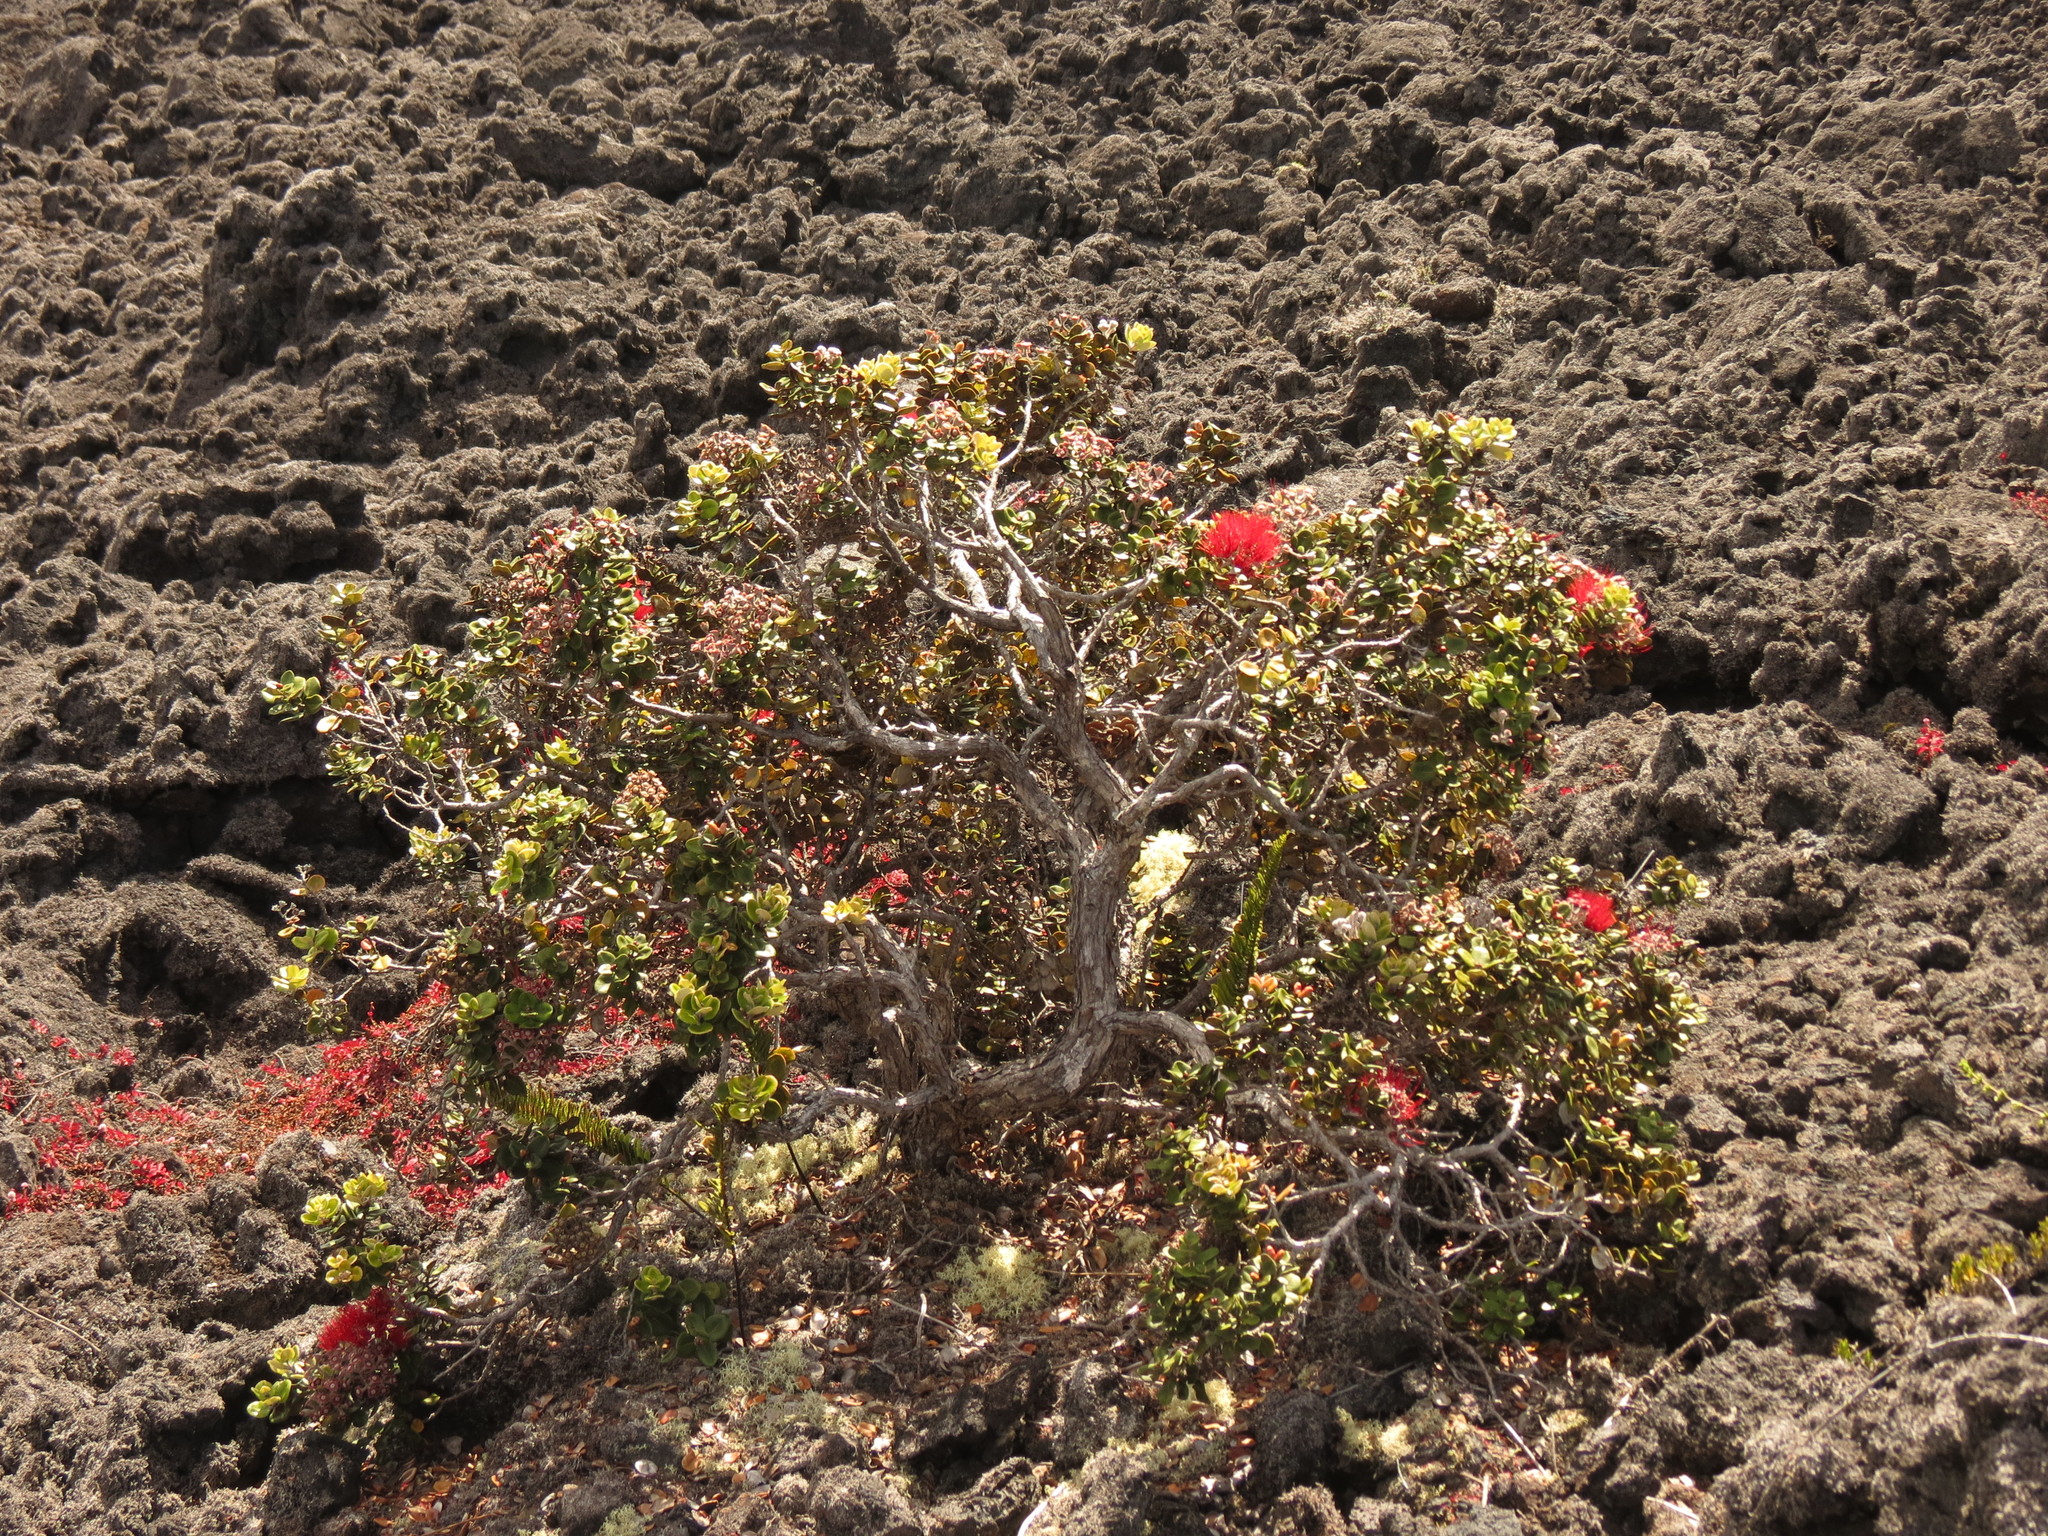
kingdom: Plantae
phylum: Tracheophyta
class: Magnoliopsida
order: Myrtales
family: Myrtaceae
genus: Metrosideros
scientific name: Metrosideros polymorpha
